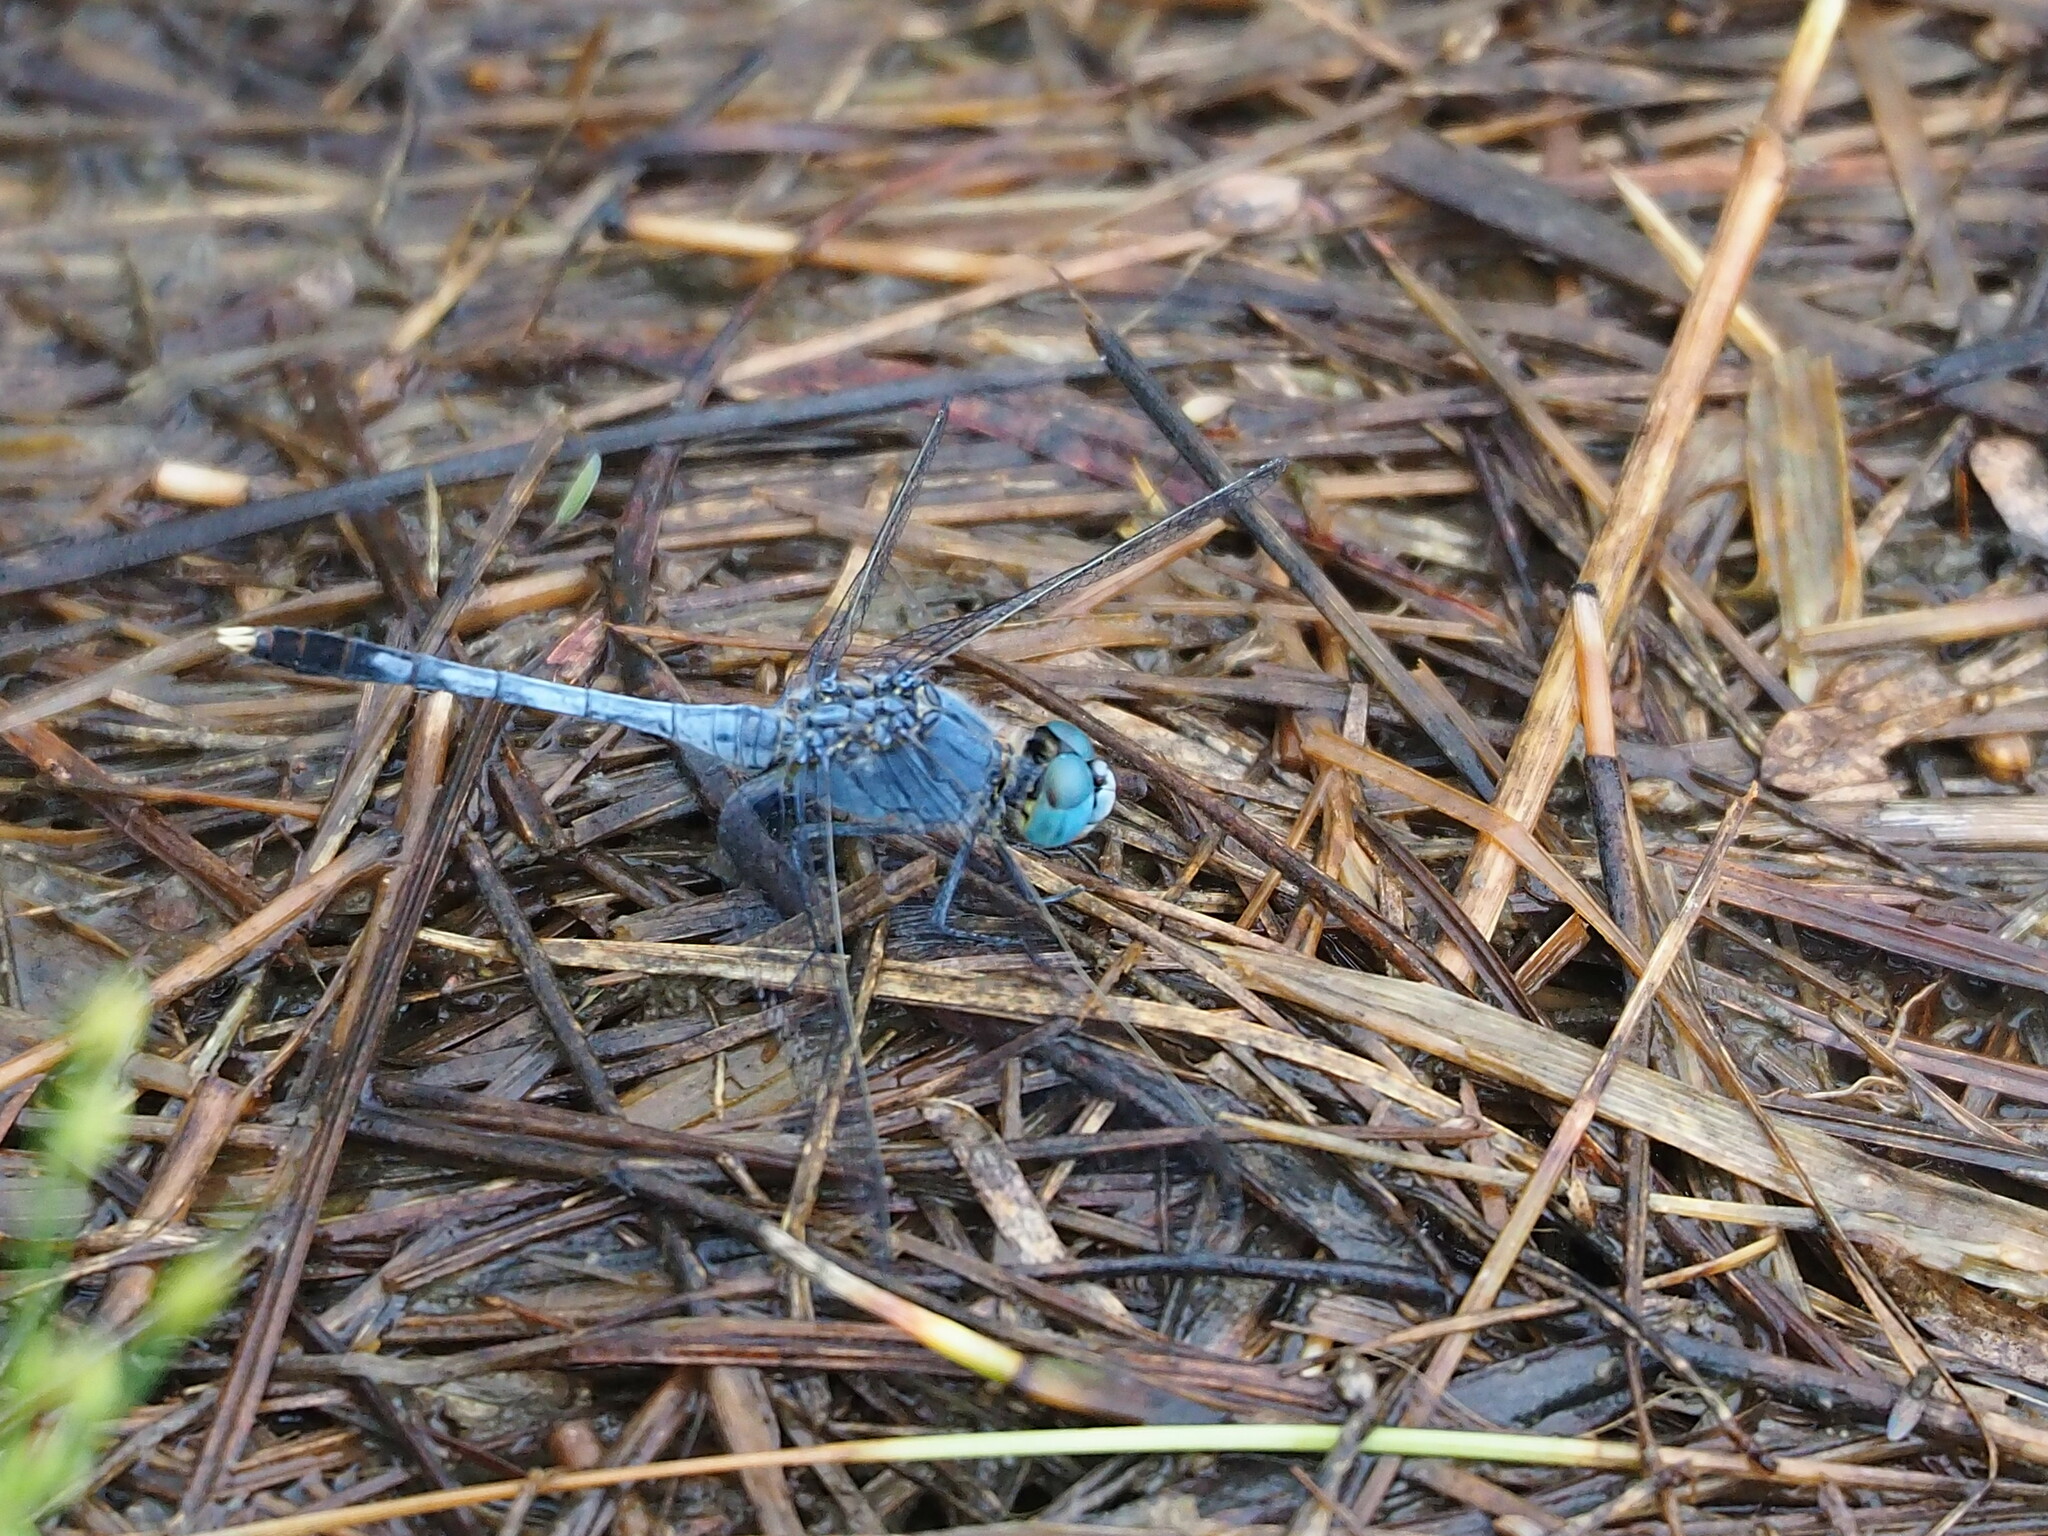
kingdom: Animalia
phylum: Arthropoda
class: Insecta
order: Odonata
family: Libellulidae
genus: Diplacodes
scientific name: Diplacodes trivialis
